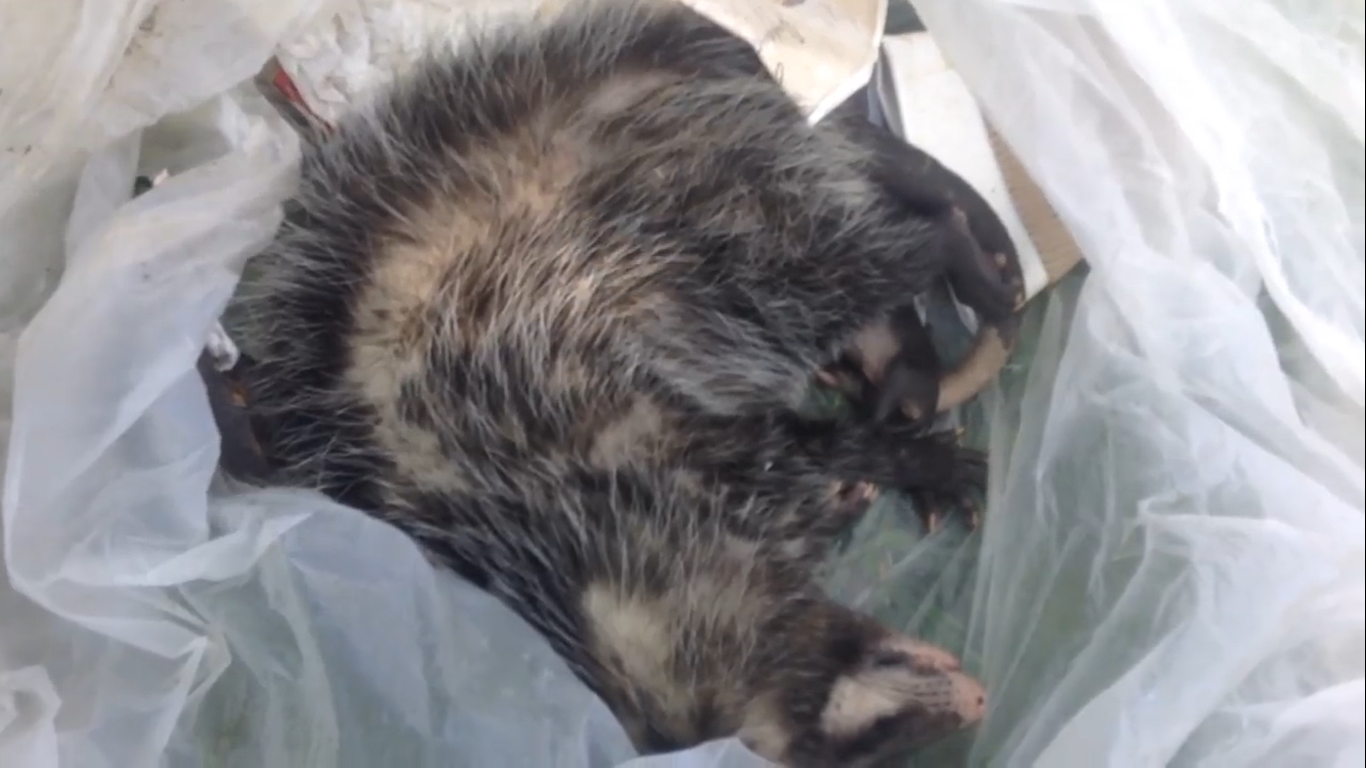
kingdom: Animalia
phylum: Chordata
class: Mammalia
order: Didelphimorphia
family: Didelphidae
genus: Didelphis
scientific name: Didelphis virginiana
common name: Virginia opossum
